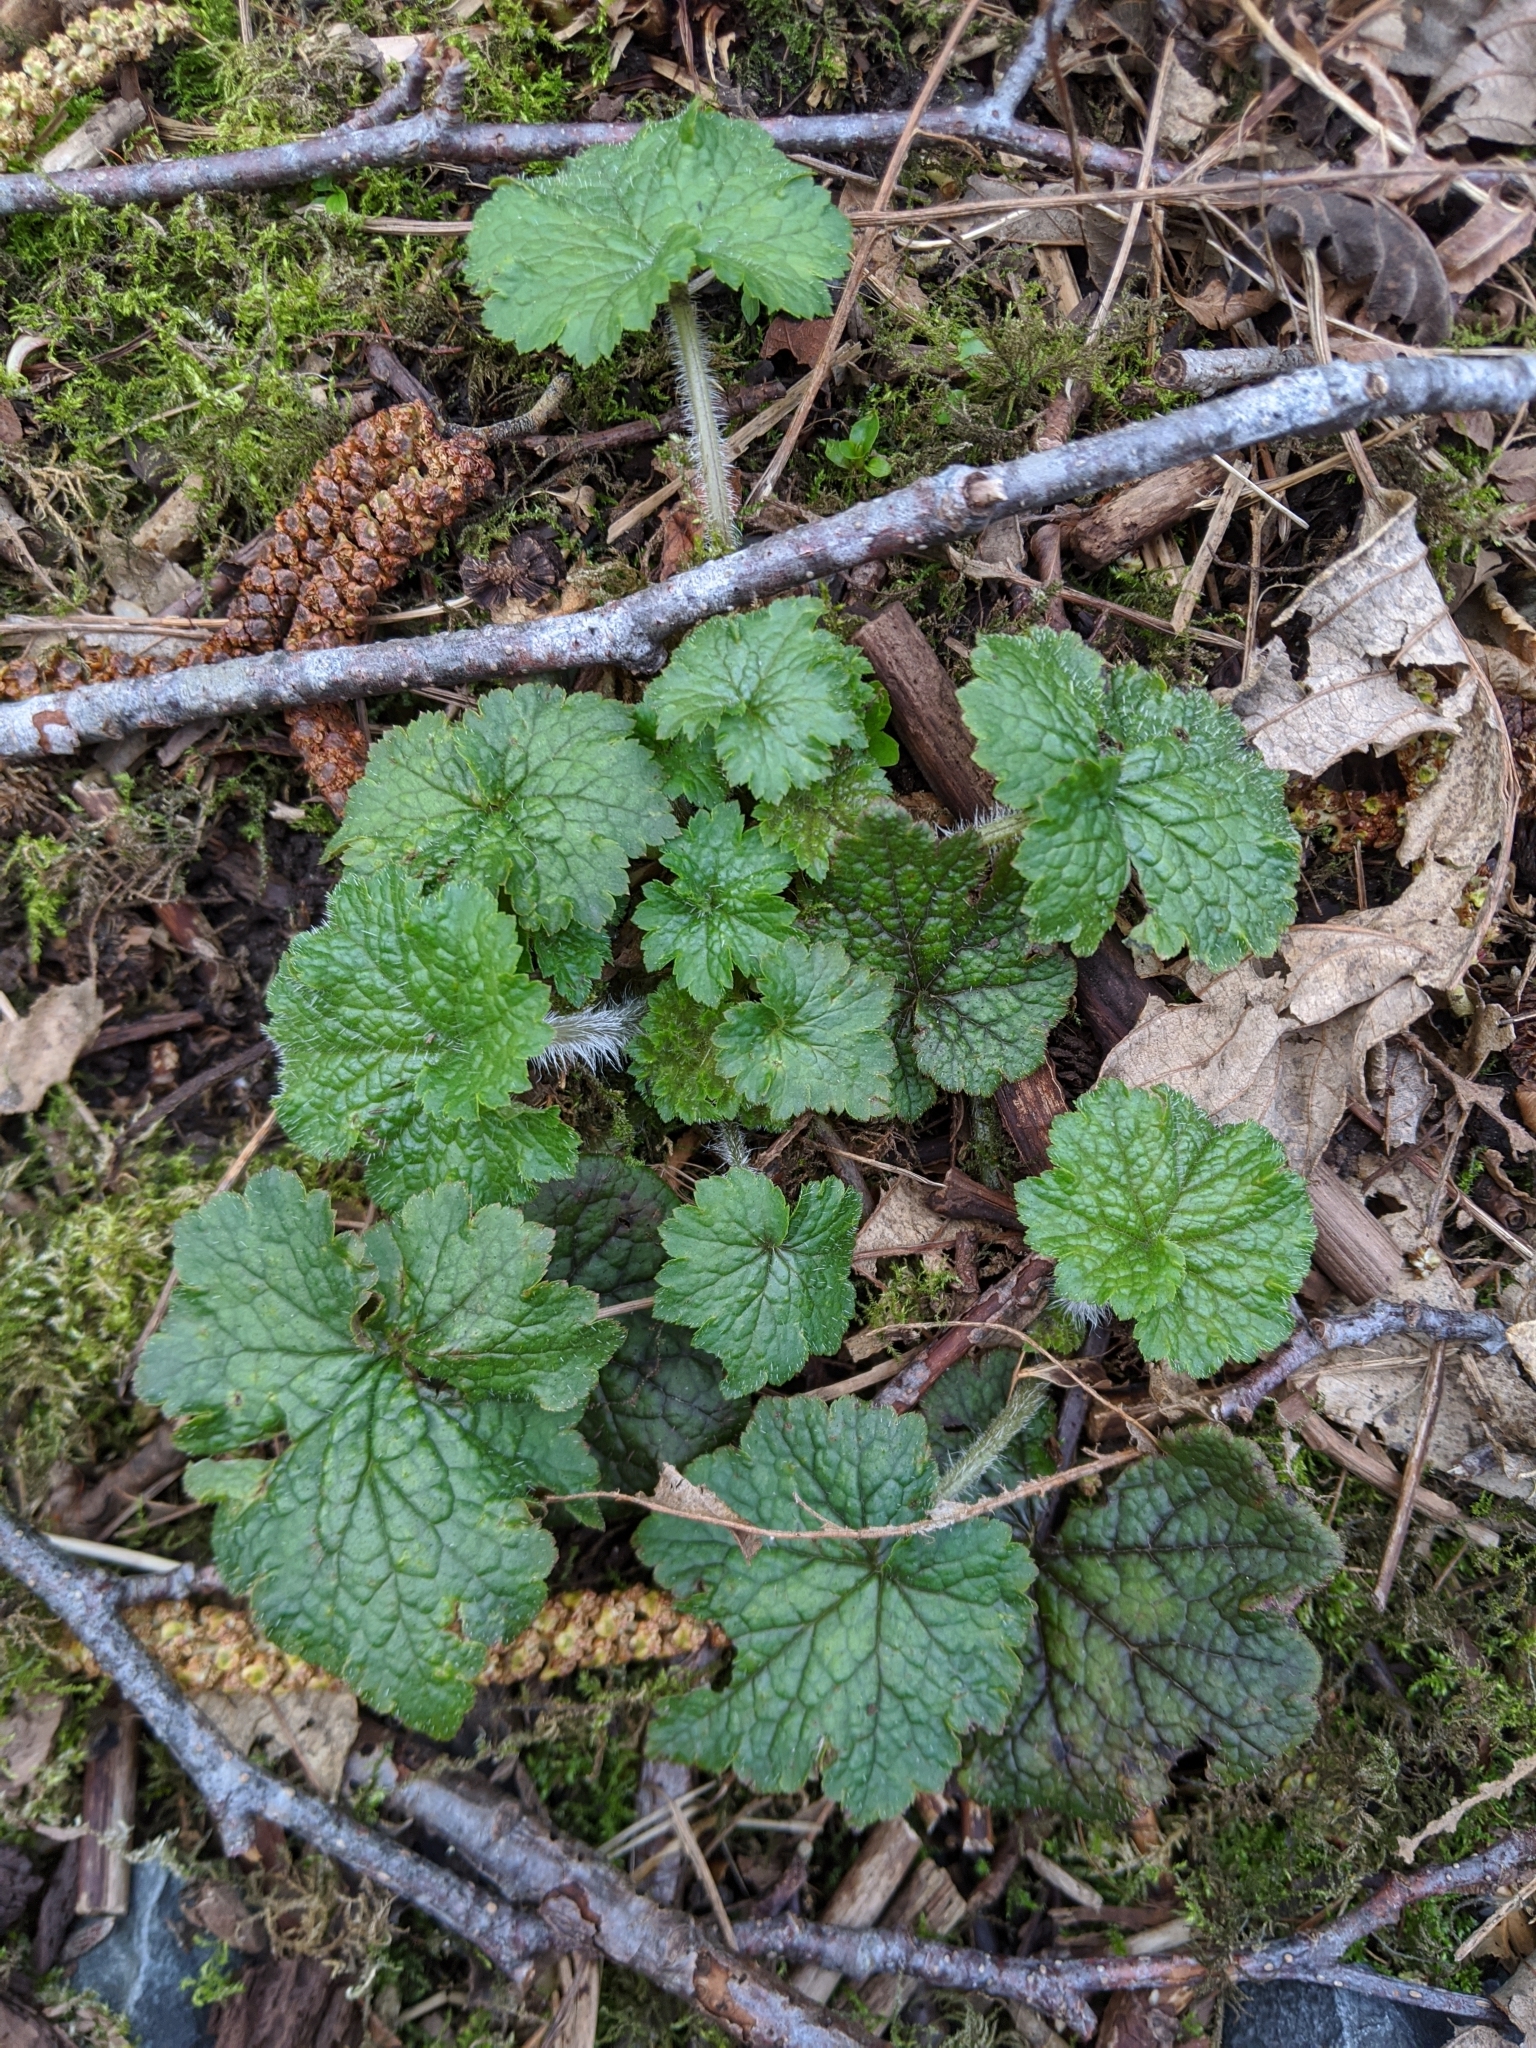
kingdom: Plantae
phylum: Tracheophyta
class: Magnoliopsida
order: Saxifragales
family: Saxifragaceae
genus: Tellima
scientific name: Tellima grandiflora
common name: Fringecups
